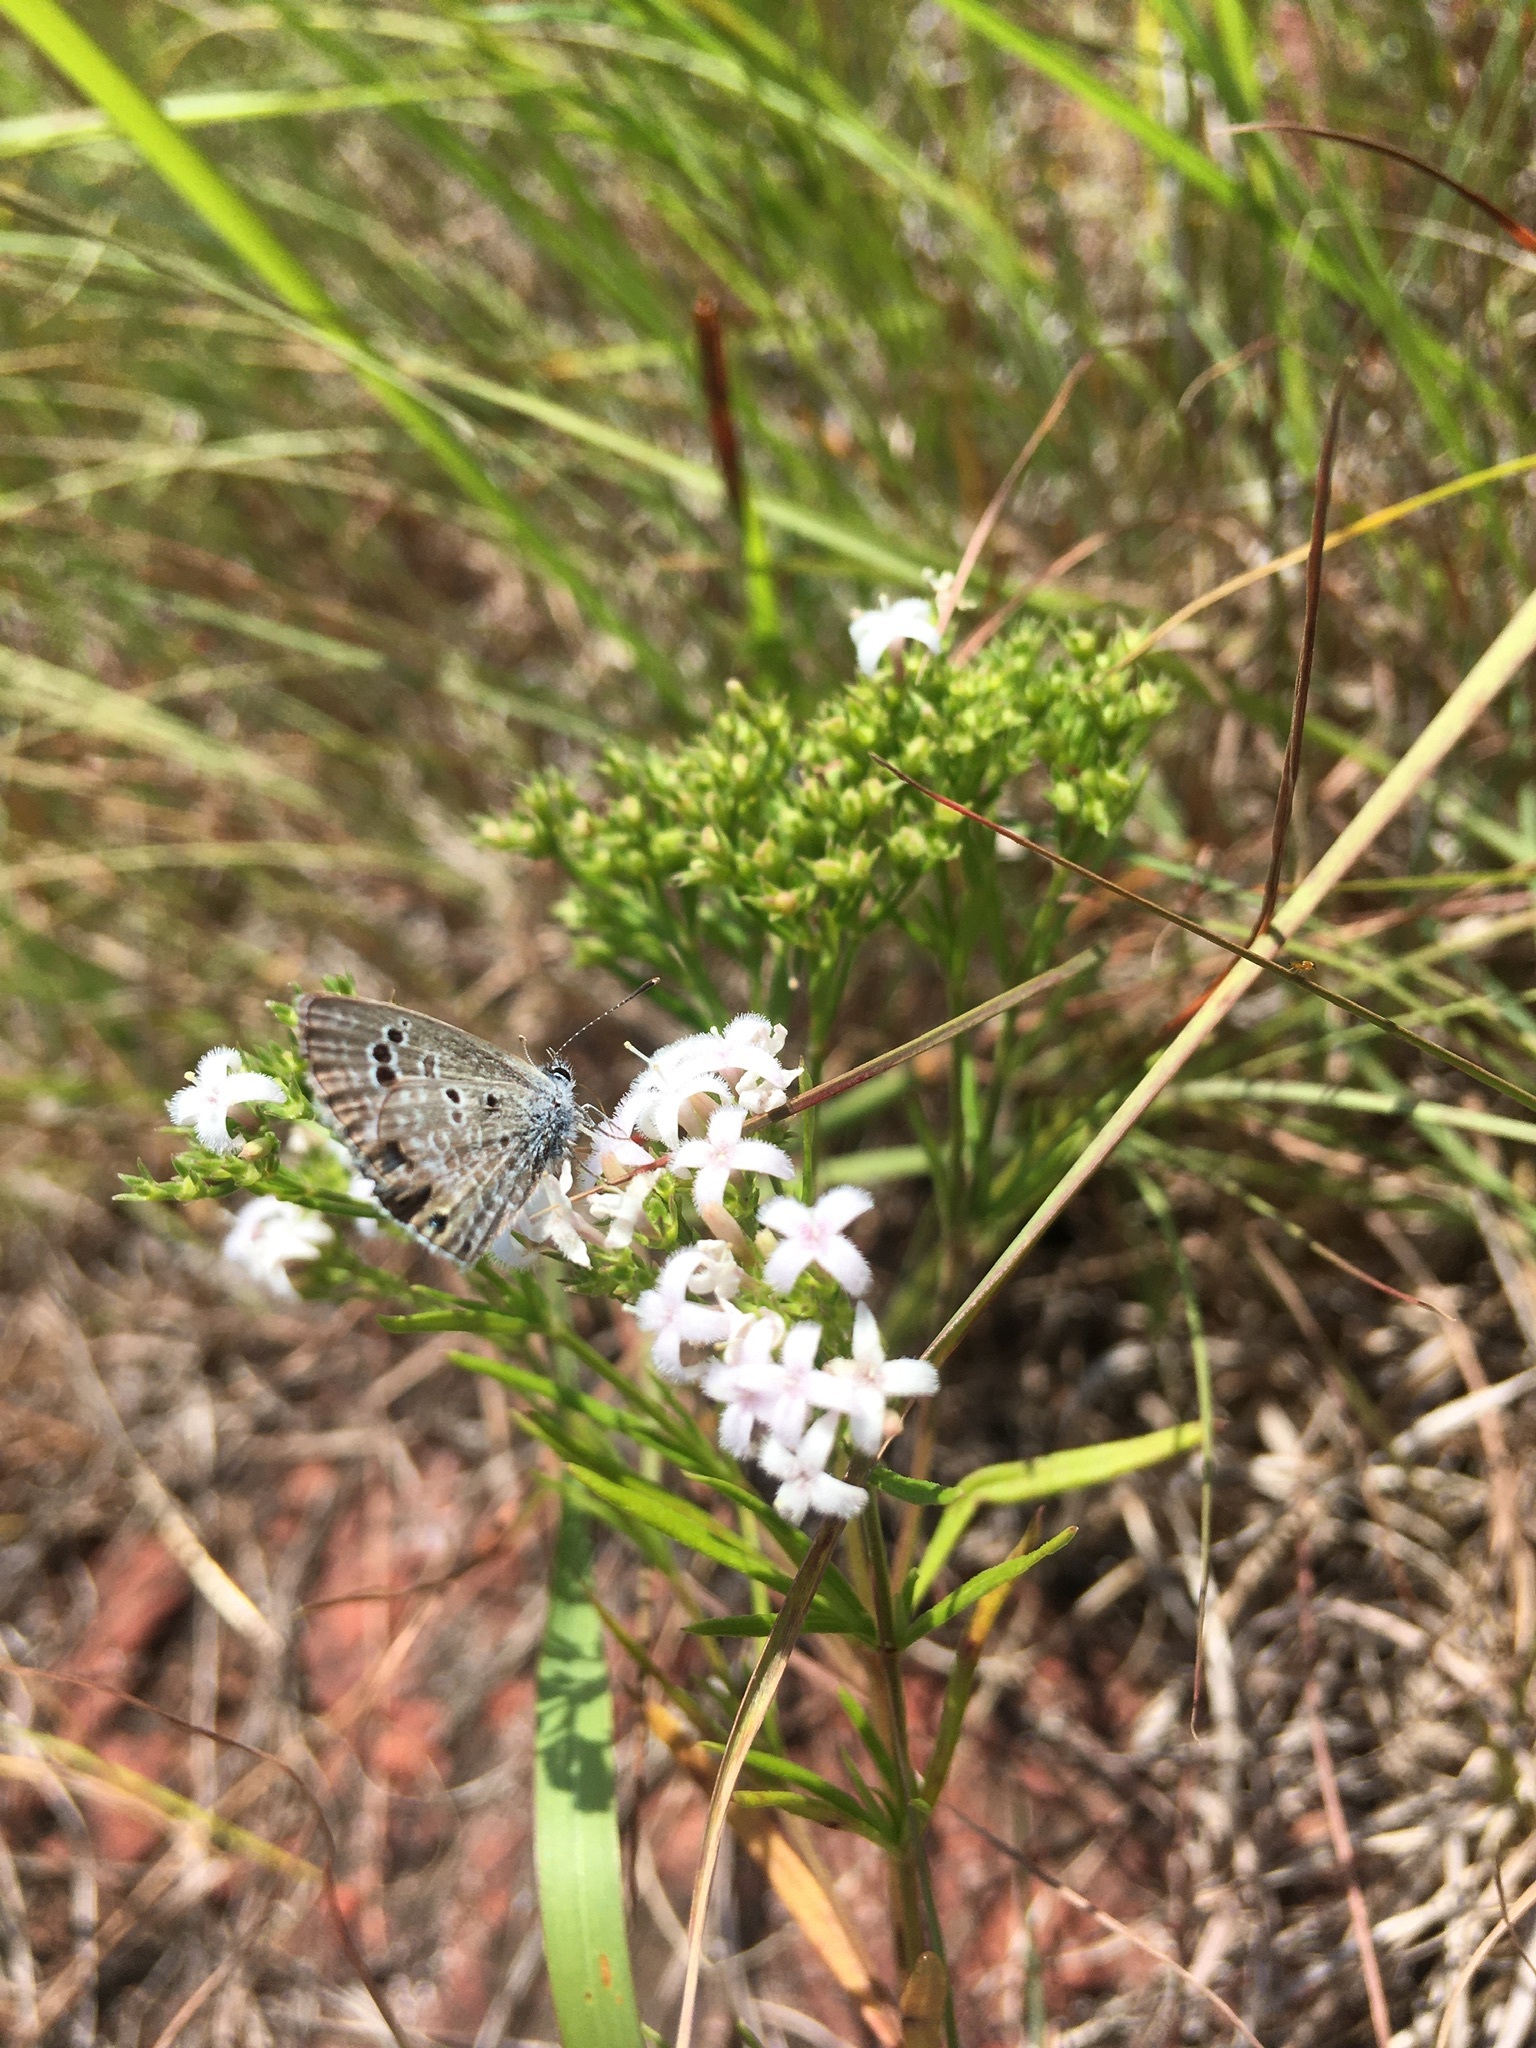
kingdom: Animalia
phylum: Arthropoda
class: Insecta
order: Lepidoptera
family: Lycaenidae
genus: Echinargus
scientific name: Echinargus isola
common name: Reakirt's blue
